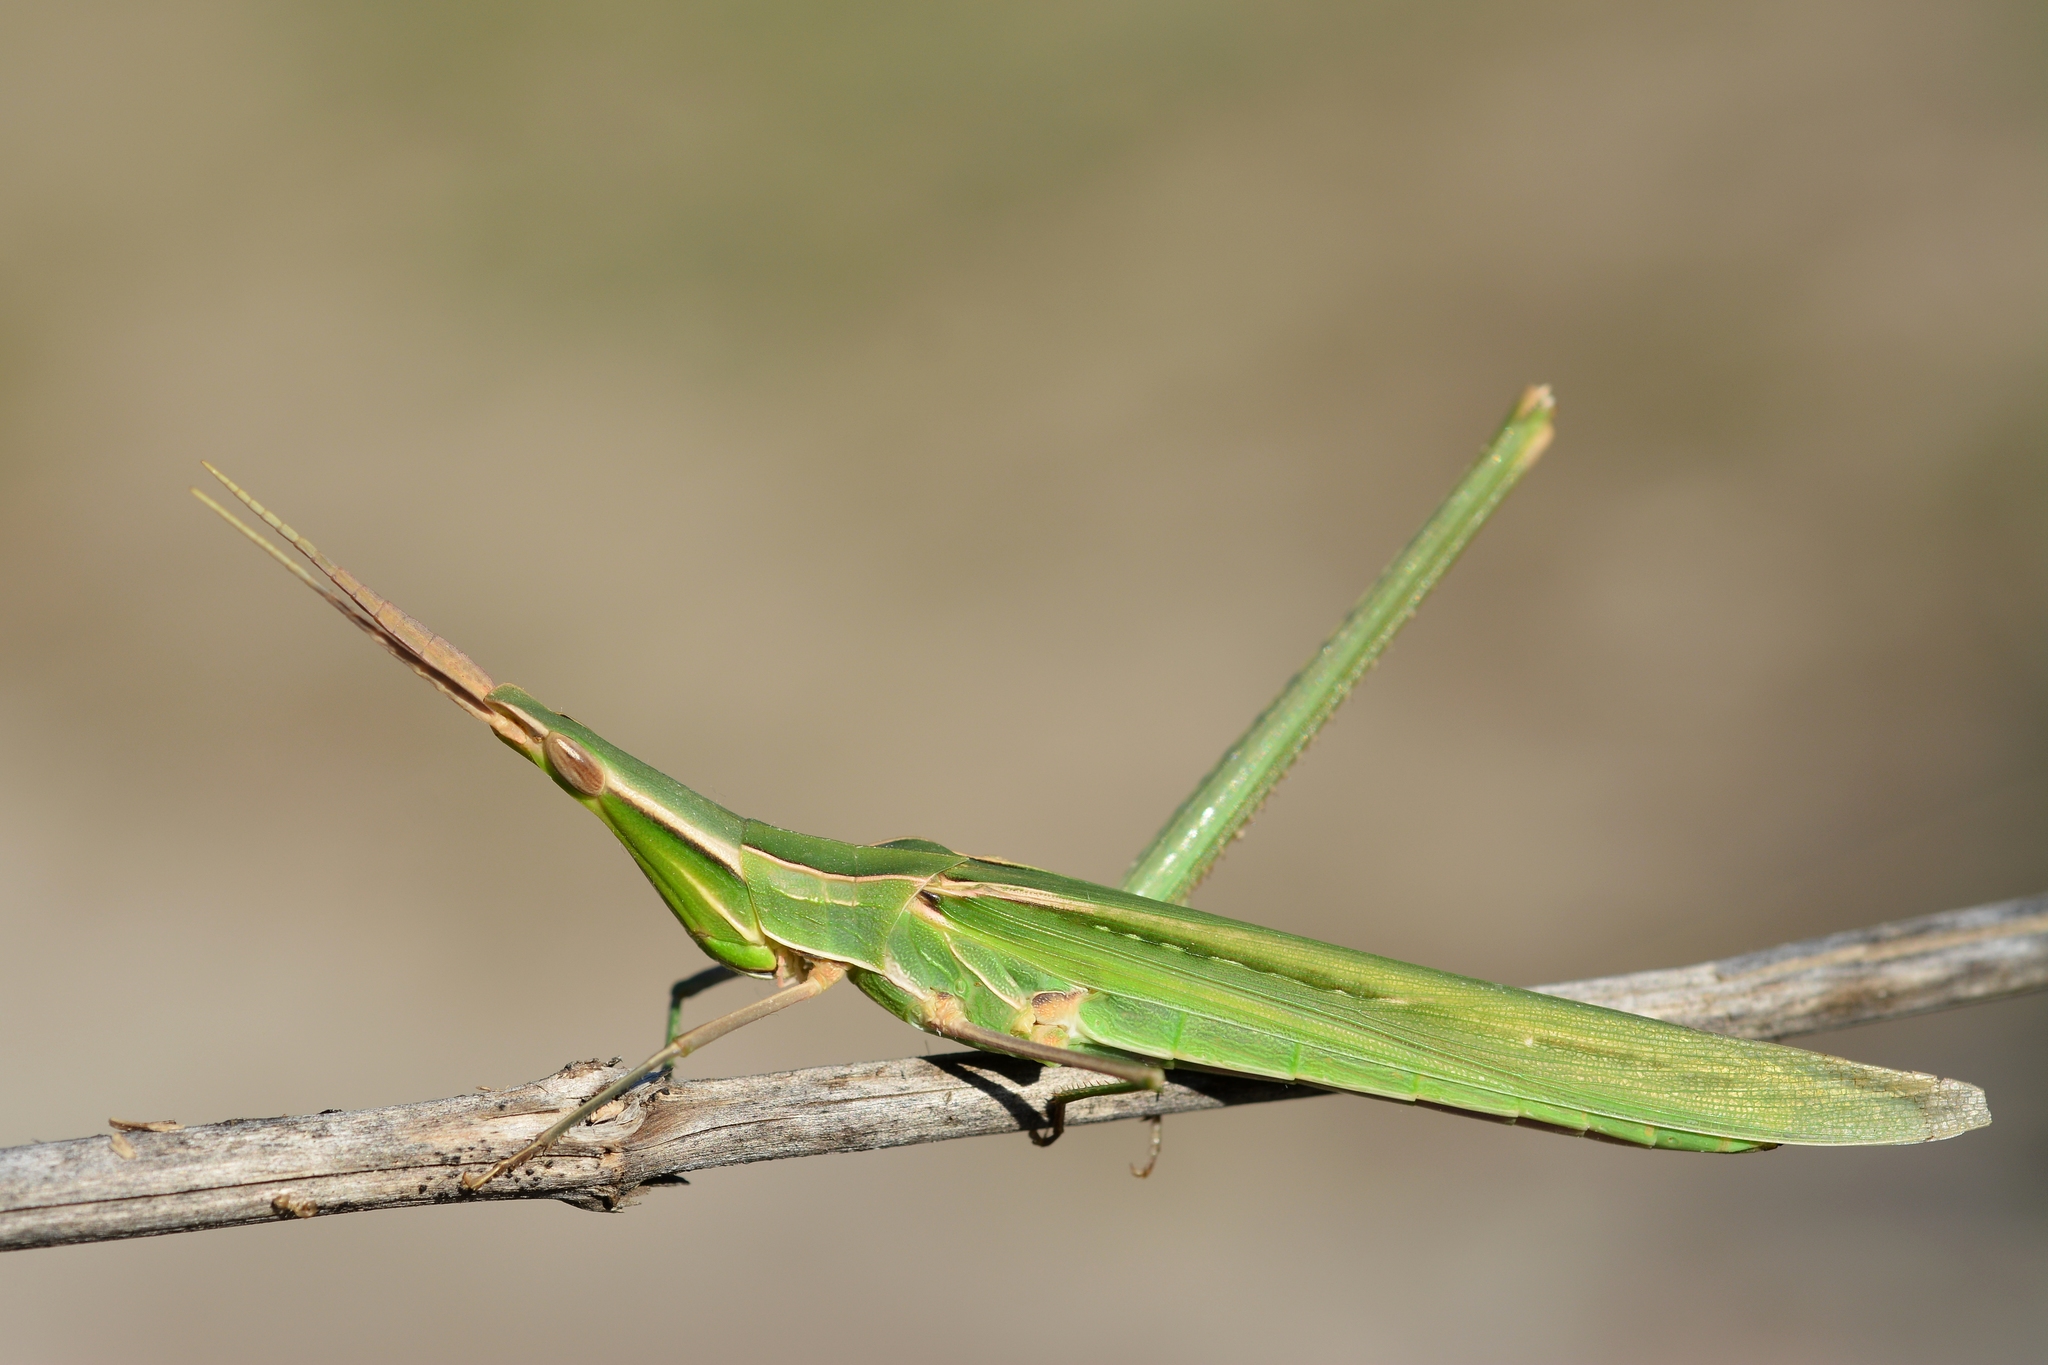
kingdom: Animalia
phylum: Arthropoda
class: Insecta
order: Orthoptera
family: Acrididae
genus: Acrida
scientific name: Acrida ungarica
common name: Common cone-headed grasshopper
